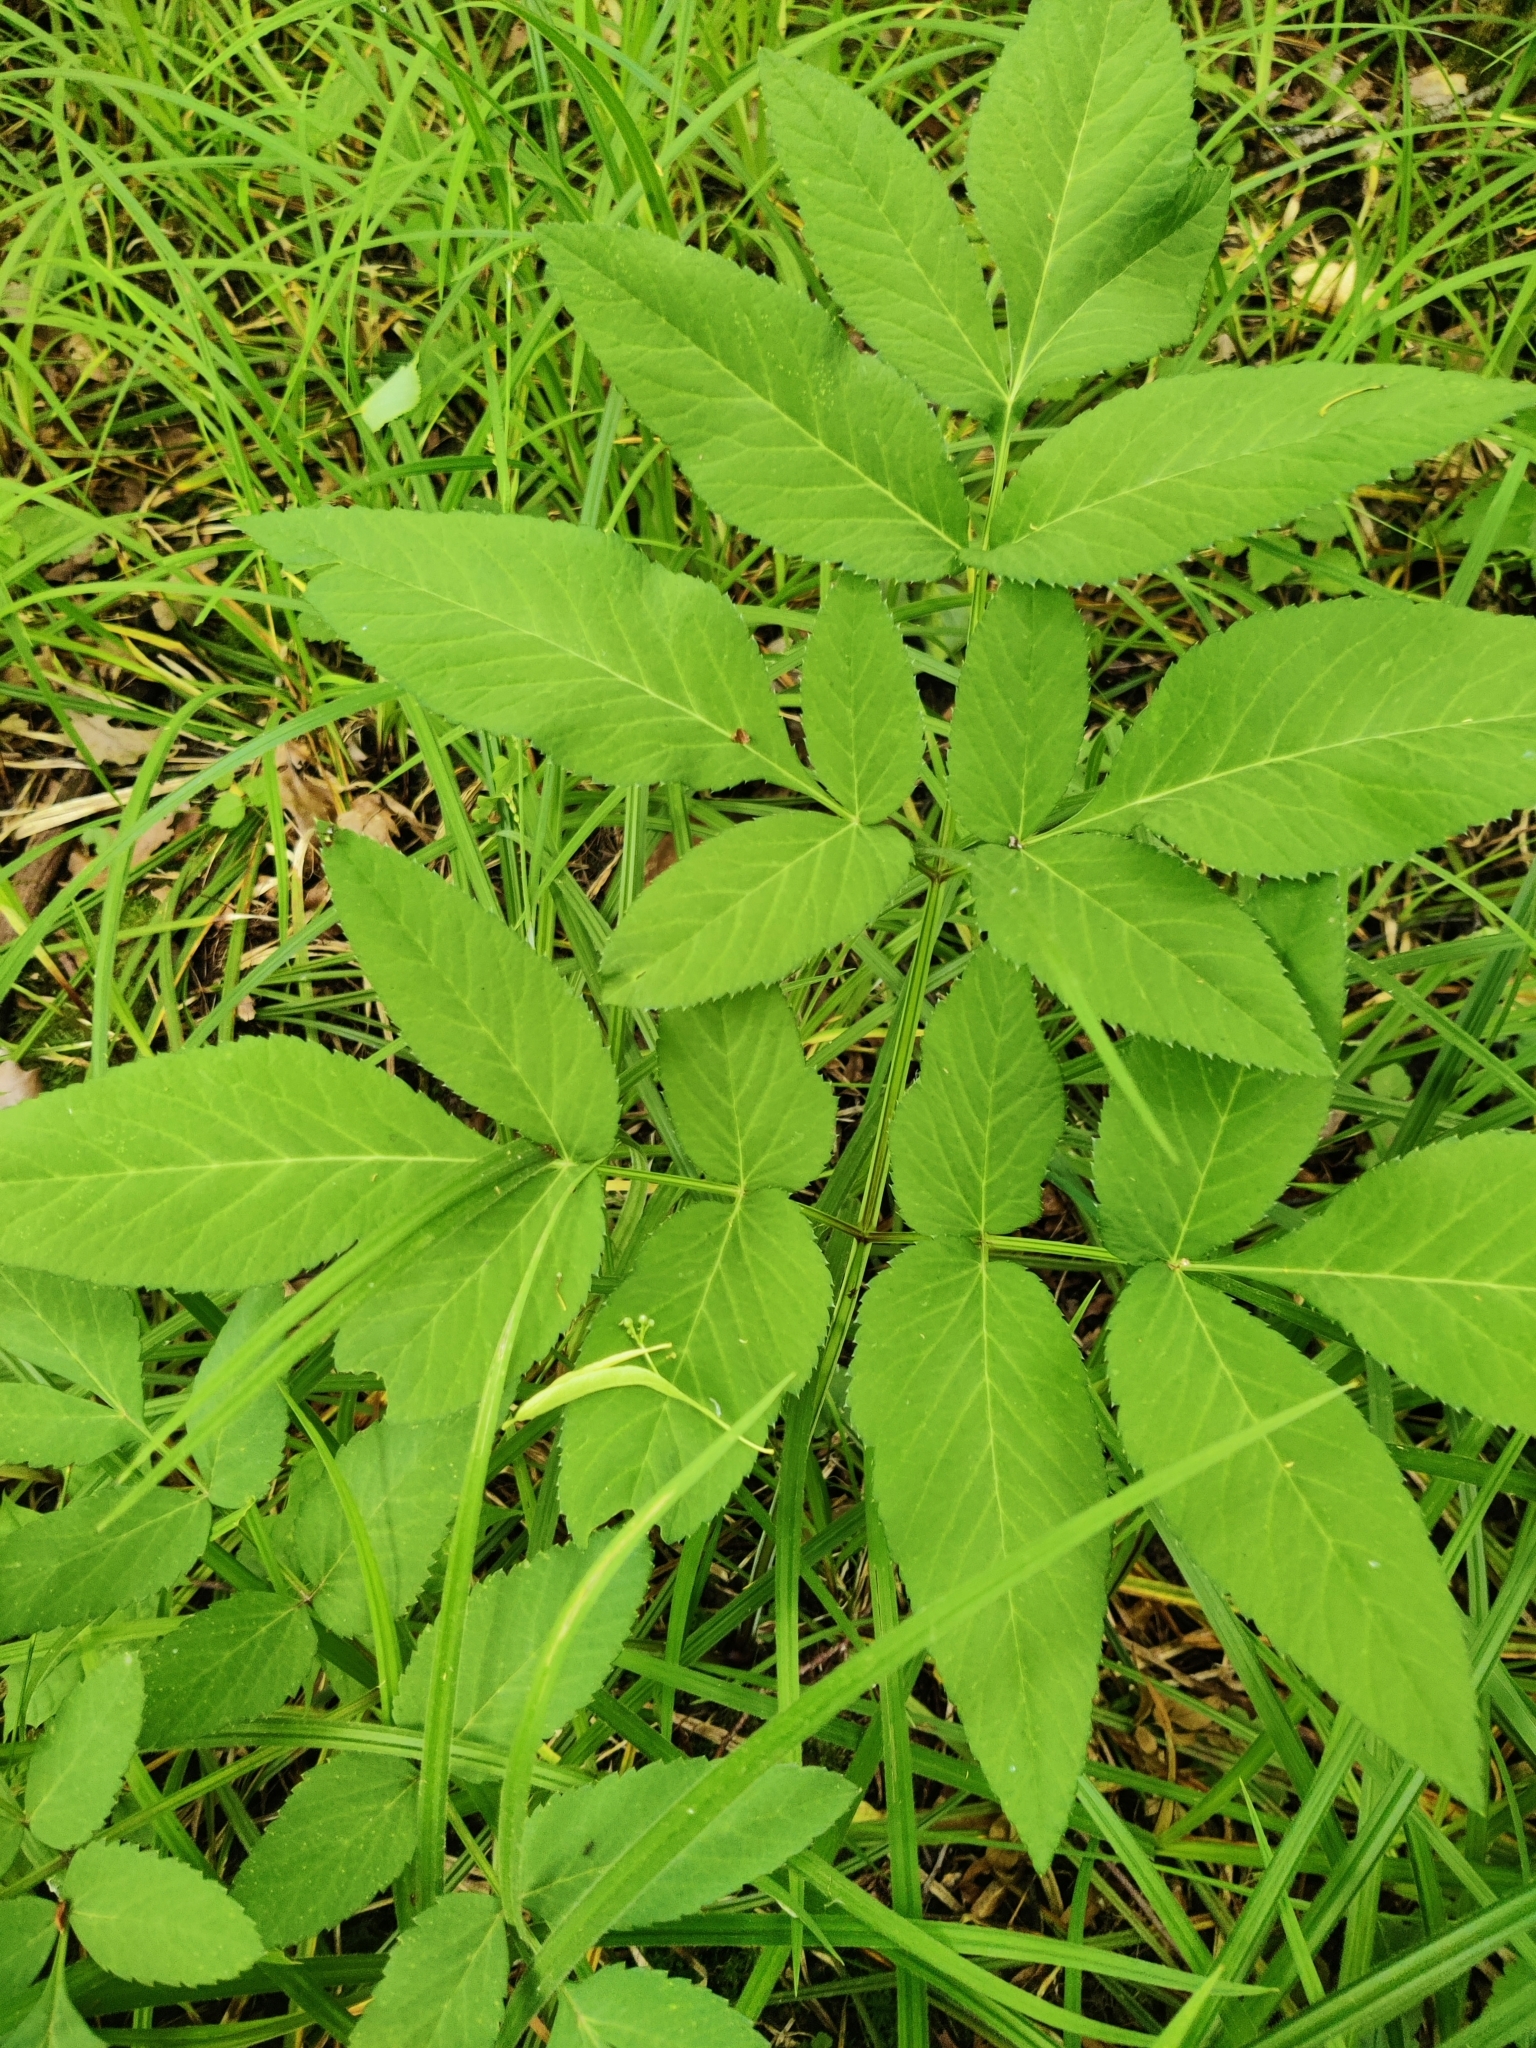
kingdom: Plantae
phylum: Tracheophyta
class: Magnoliopsida
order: Apiales
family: Apiaceae
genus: Angelica
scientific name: Angelica sylvestris
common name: Wild angelica
